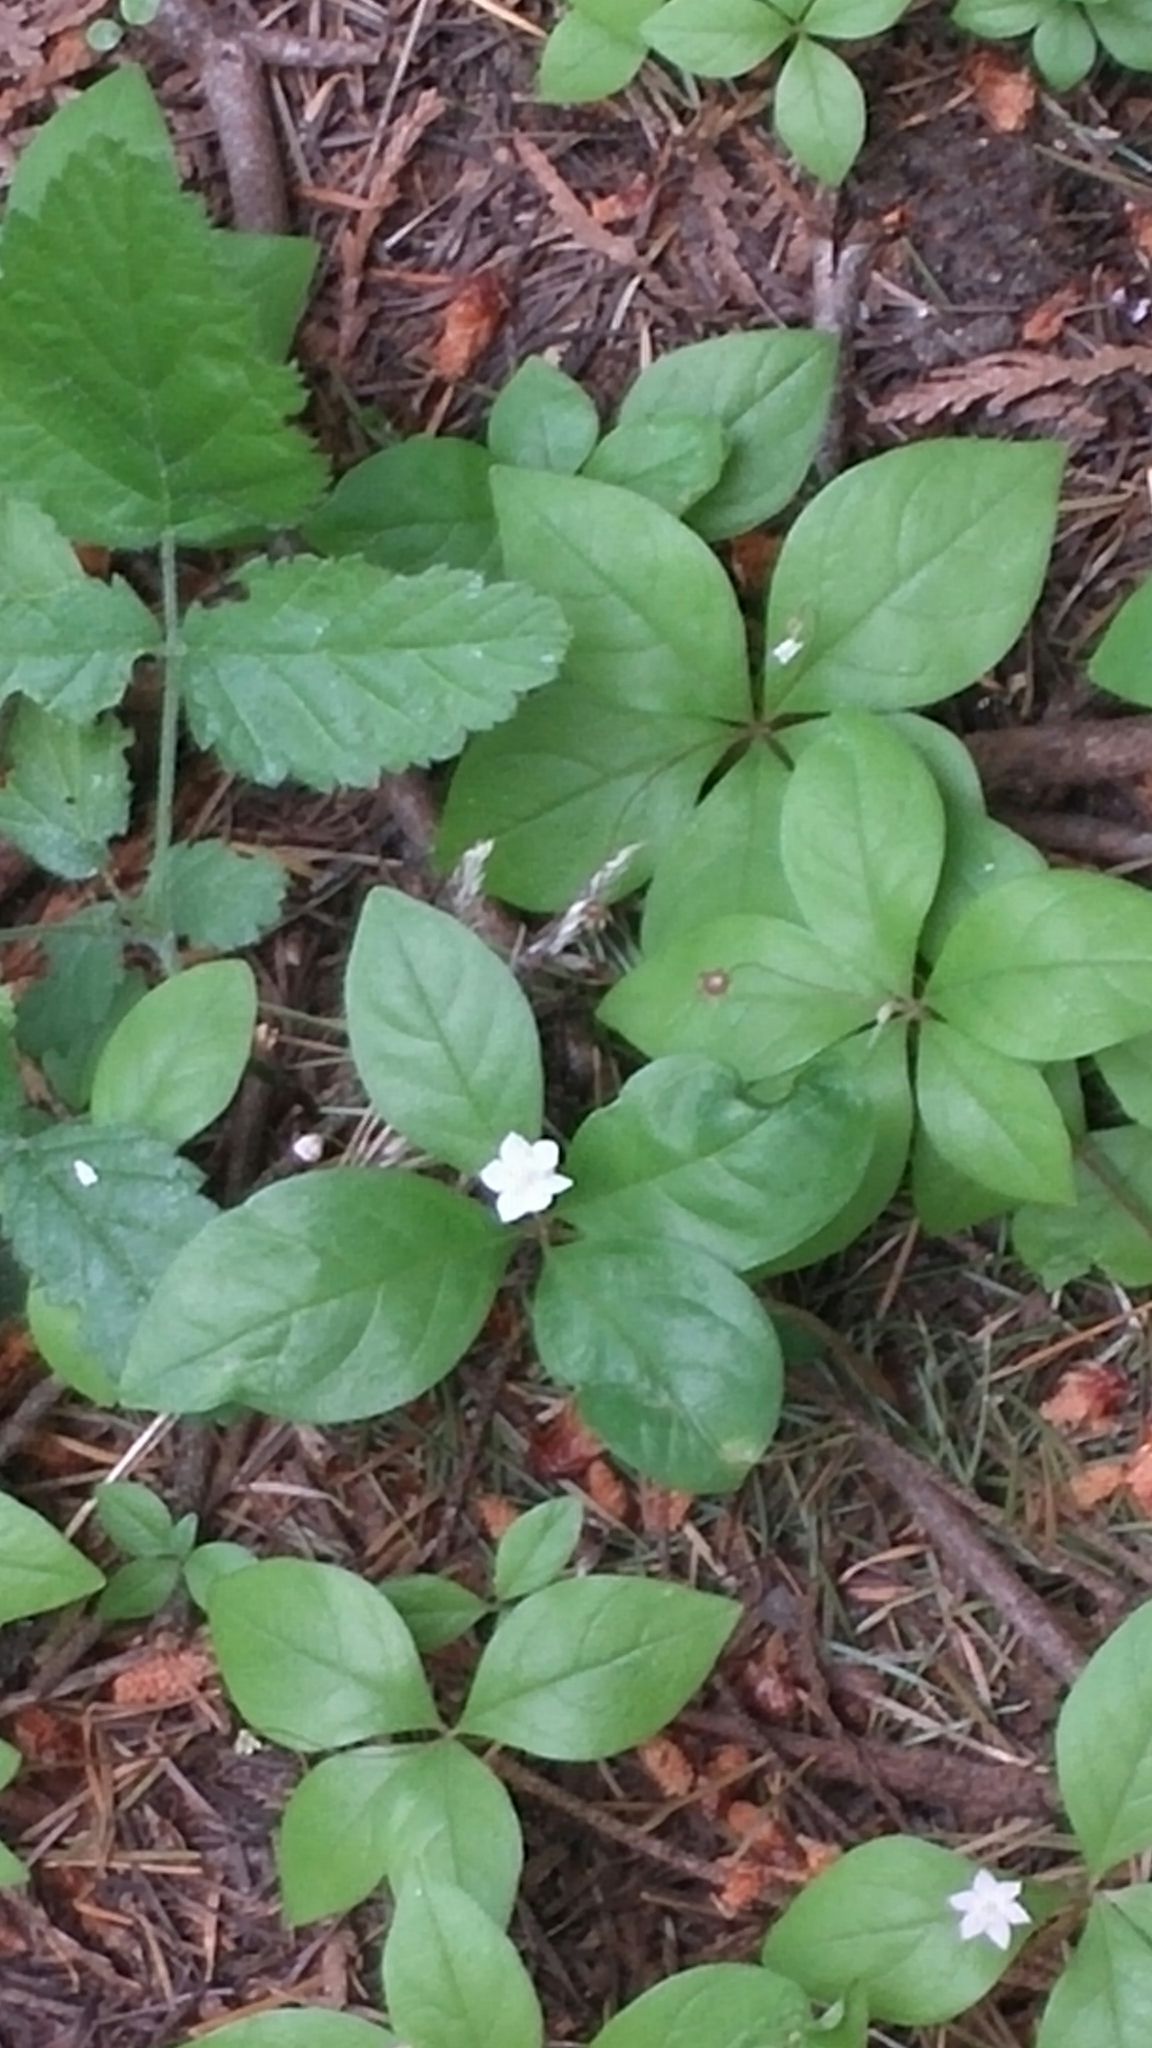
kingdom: Plantae
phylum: Tracheophyta
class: Magnoliopsida
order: Ericales
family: Primulaceae
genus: Lysimachia
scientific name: Lysimachia latifolia
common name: Pacific starflower
